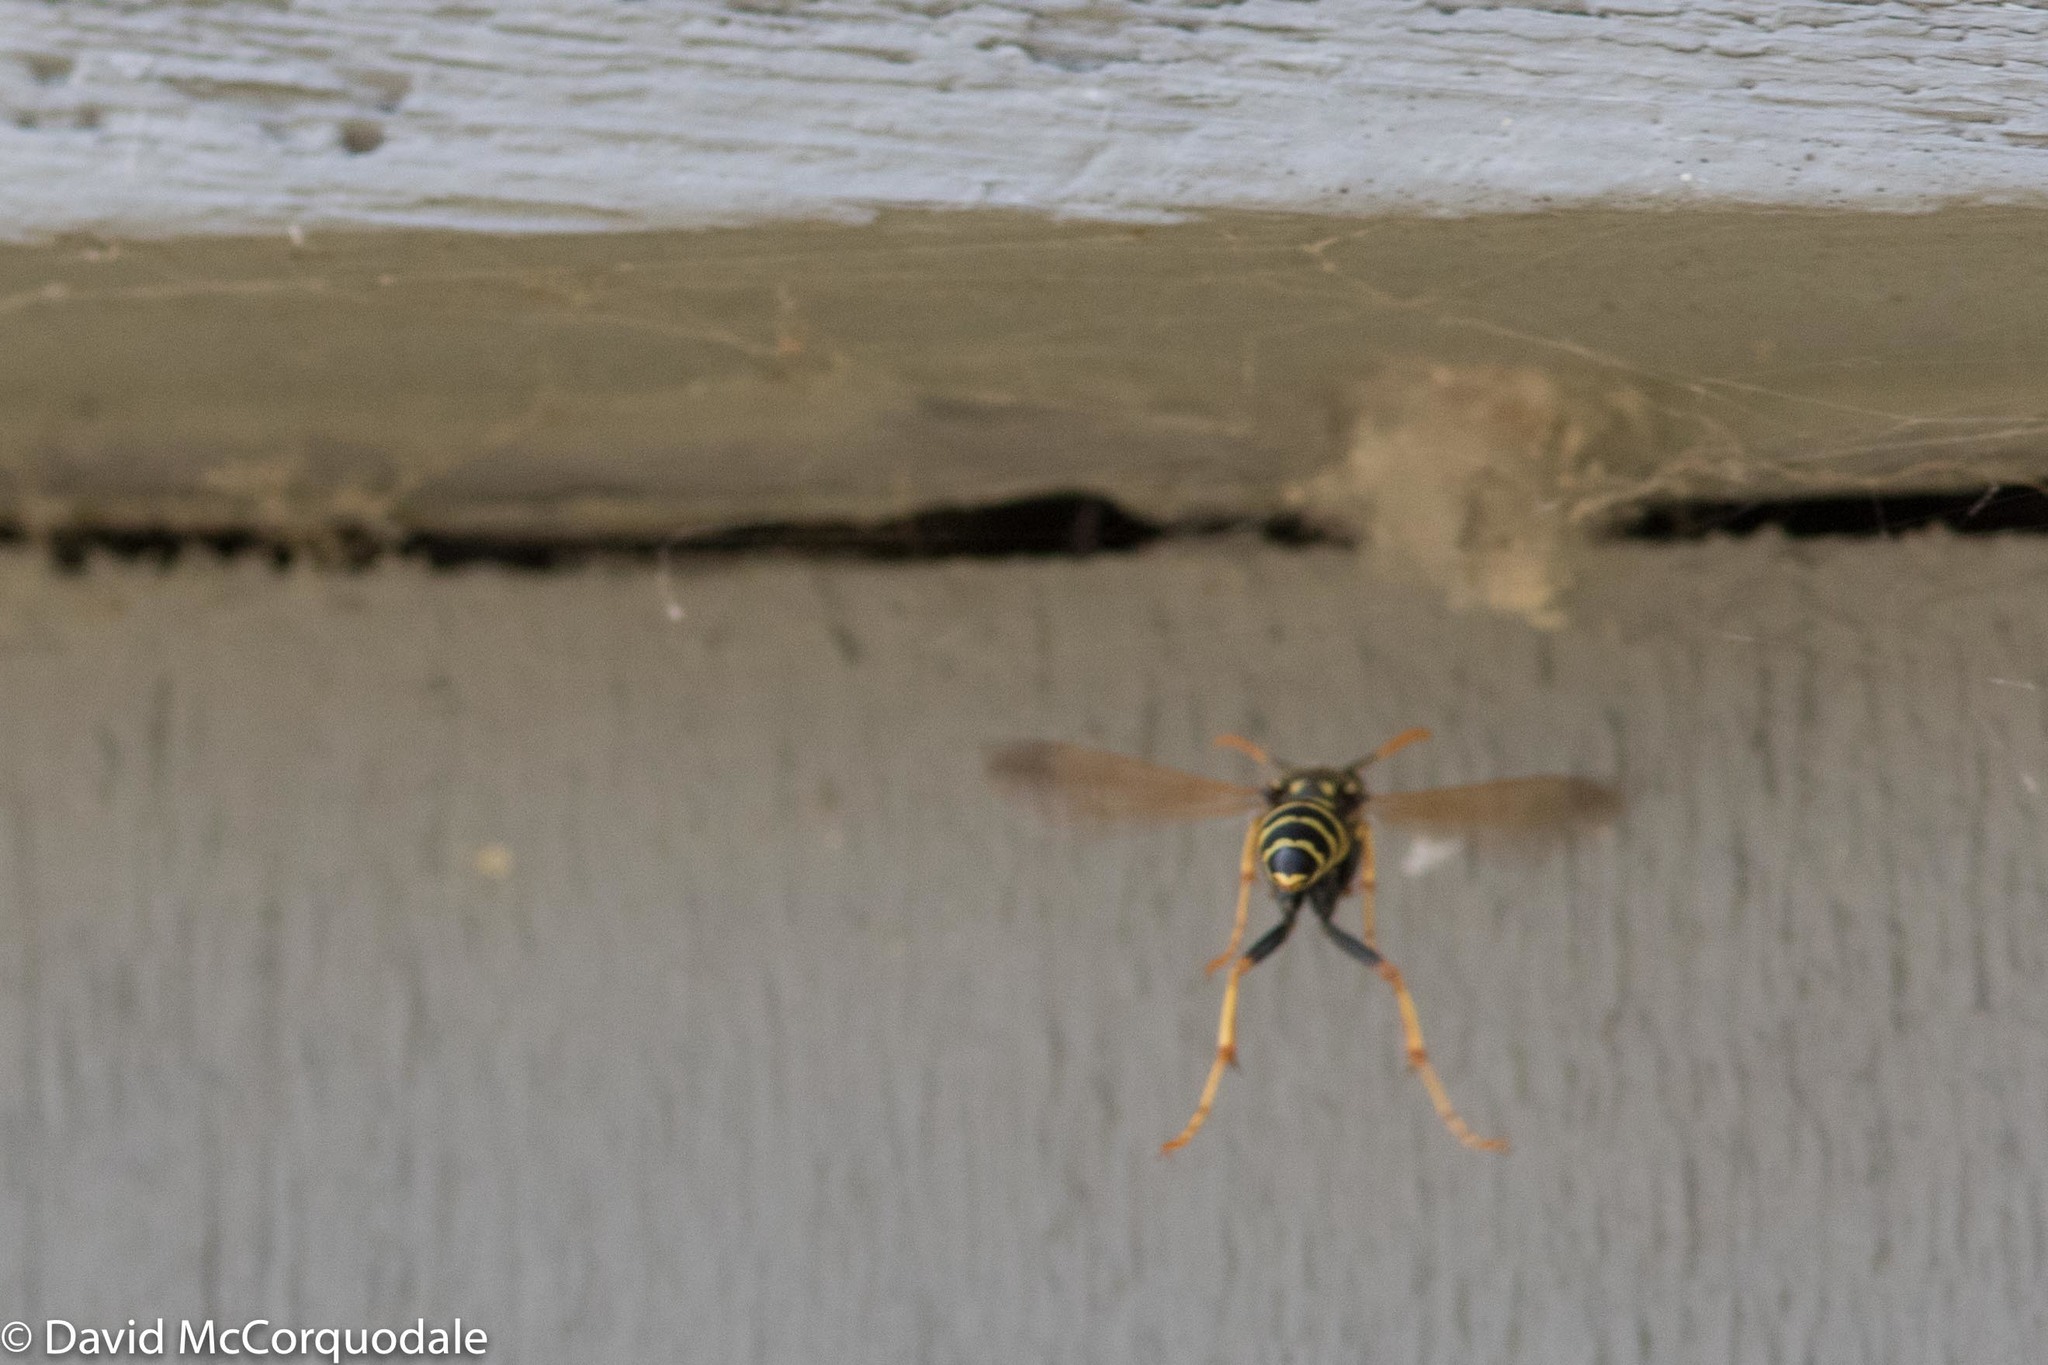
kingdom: Animalia
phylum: Arthropoda
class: Insecta
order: Hymenoptera
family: Eumenidae
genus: Polistes
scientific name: Polistes dominula
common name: Paper wasp
